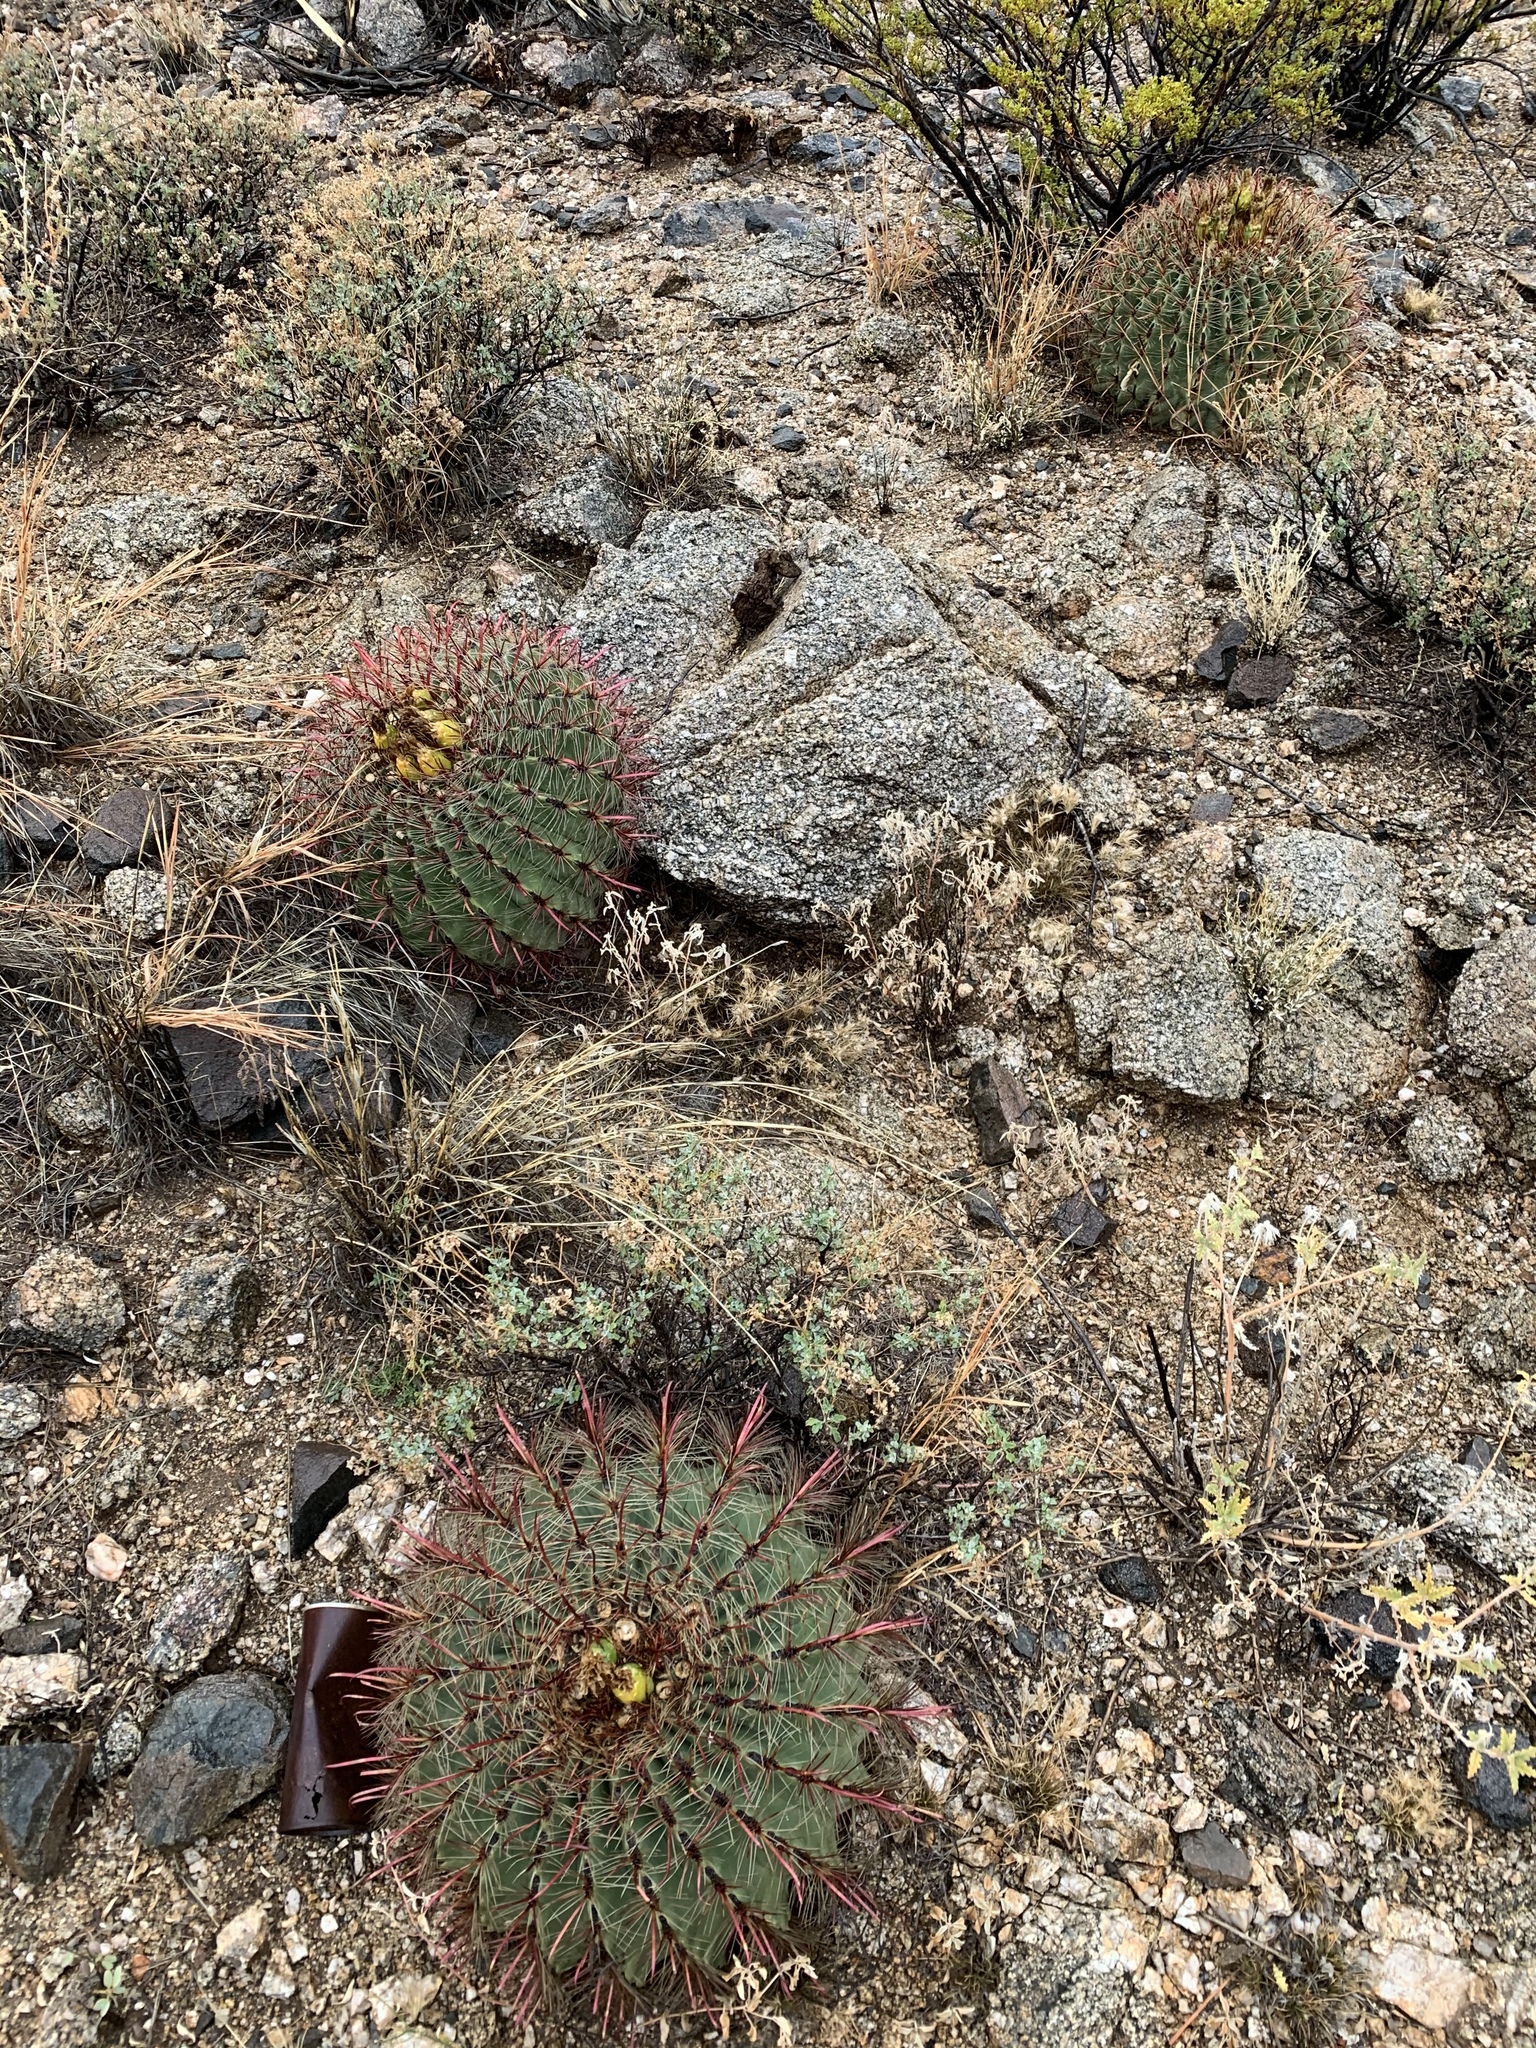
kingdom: Plantae
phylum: Tracheophyta
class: Magnoliopsida
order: Caryophyllales
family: Cactaceae
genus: Ferocactus
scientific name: Ferocactus wislizeni
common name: Candy barrel cactus
